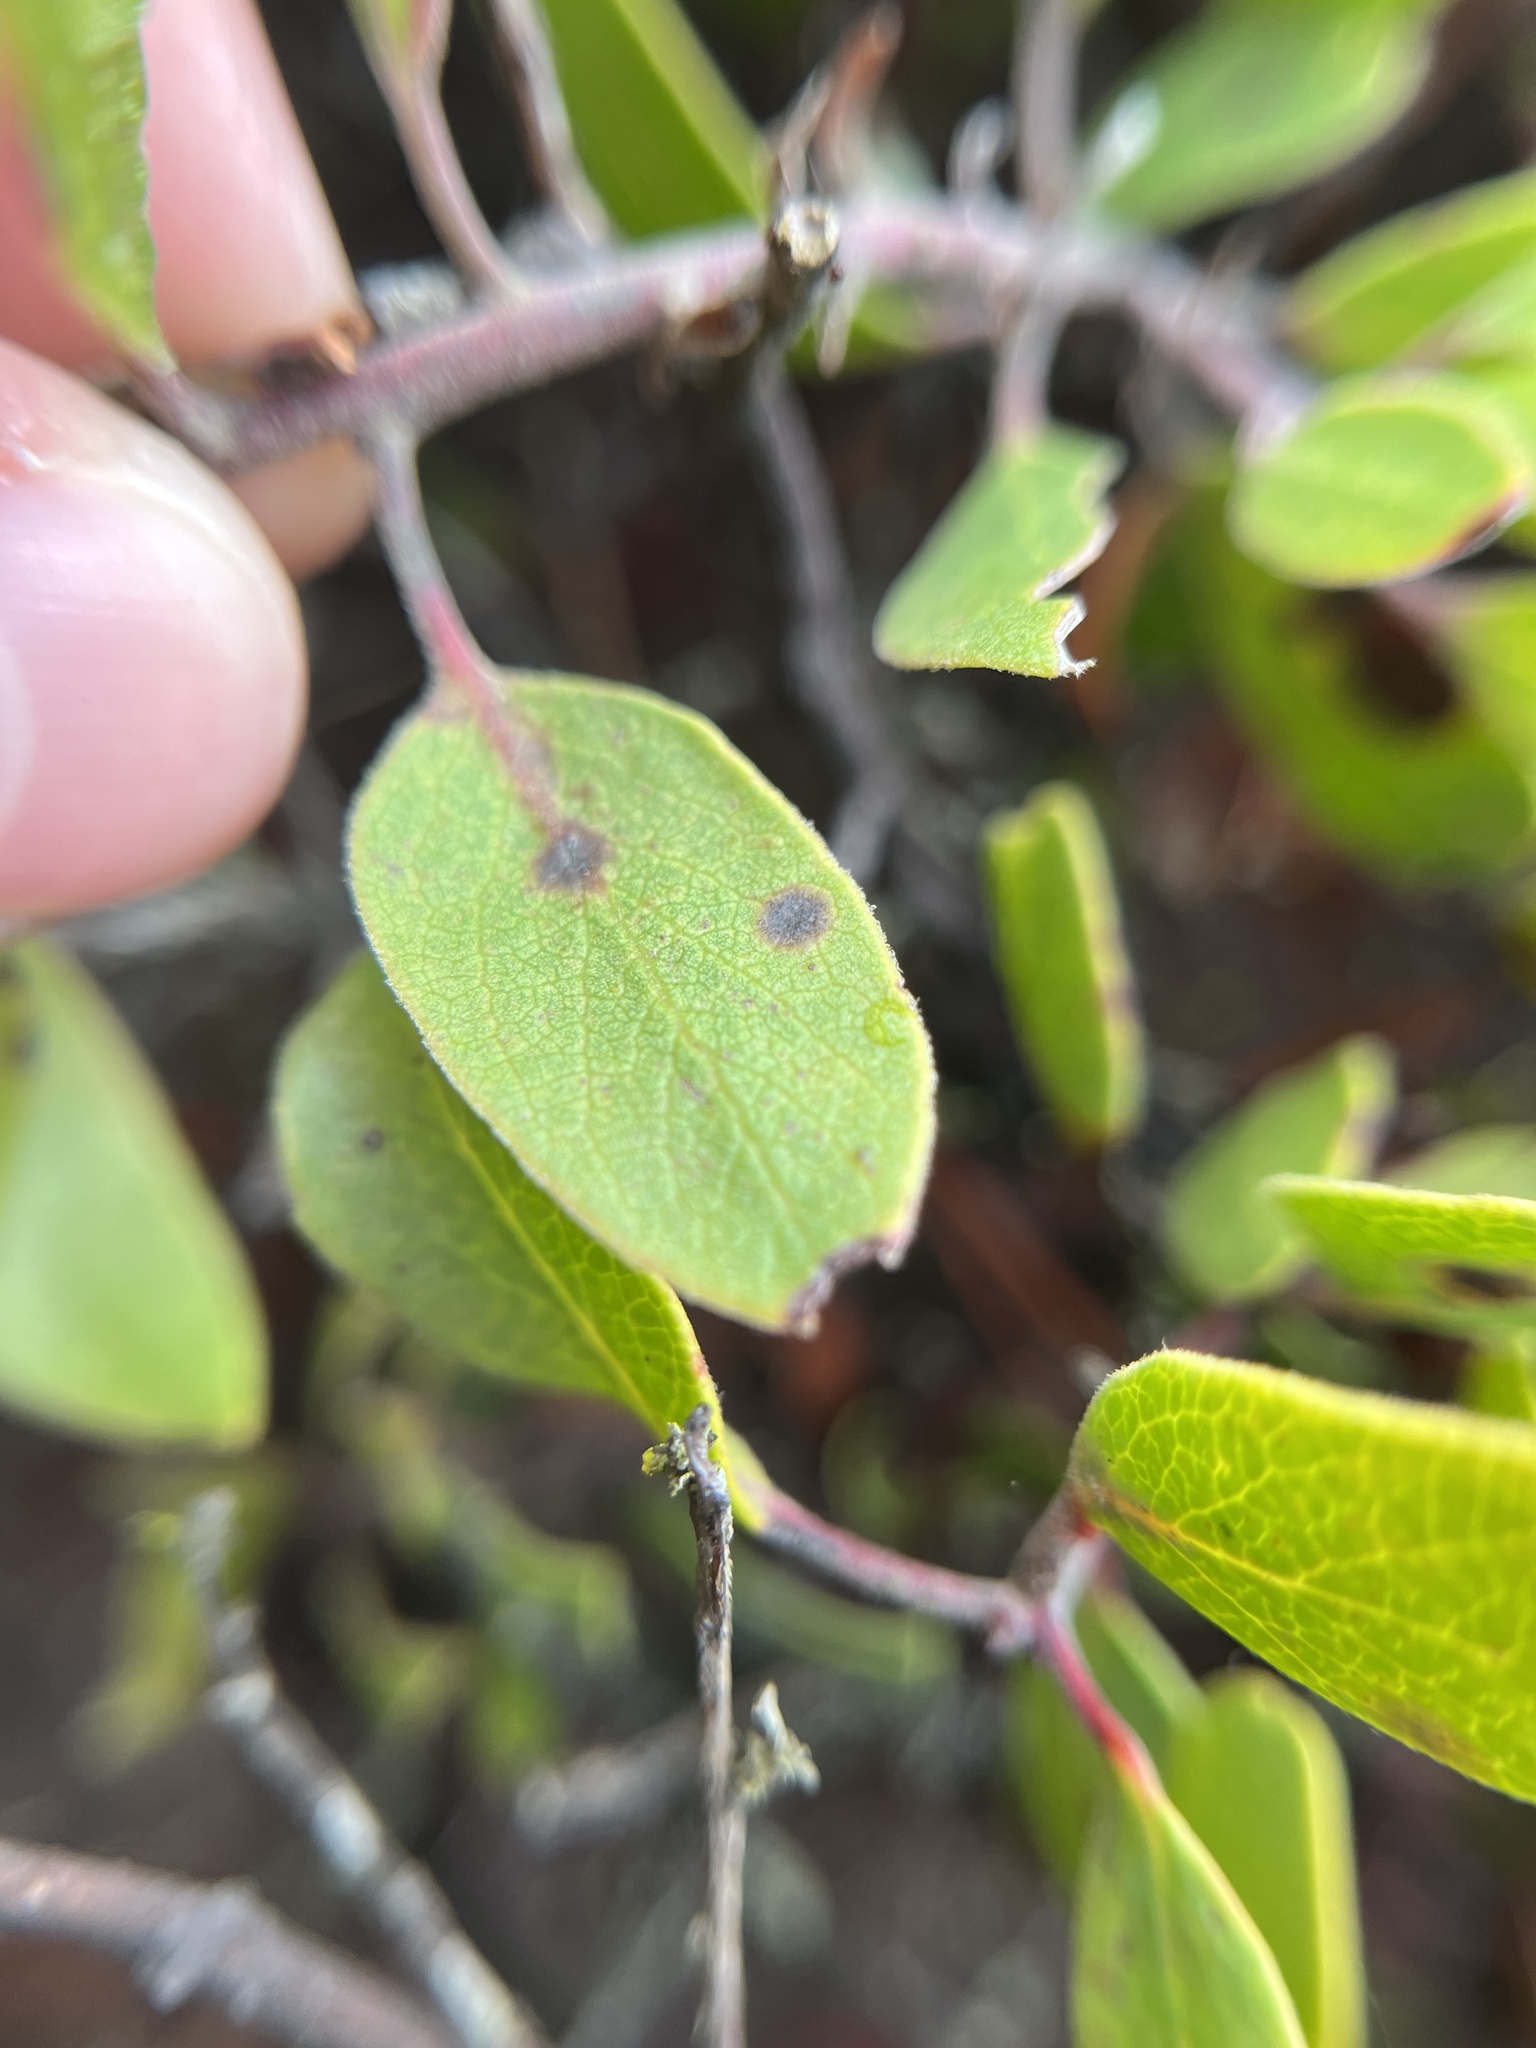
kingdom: Plantae
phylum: Tracheophyta
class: Magnoliopsida
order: Ericales
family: Ericaceae
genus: Arctostaphylos
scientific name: Arctostaphylos hookeri
